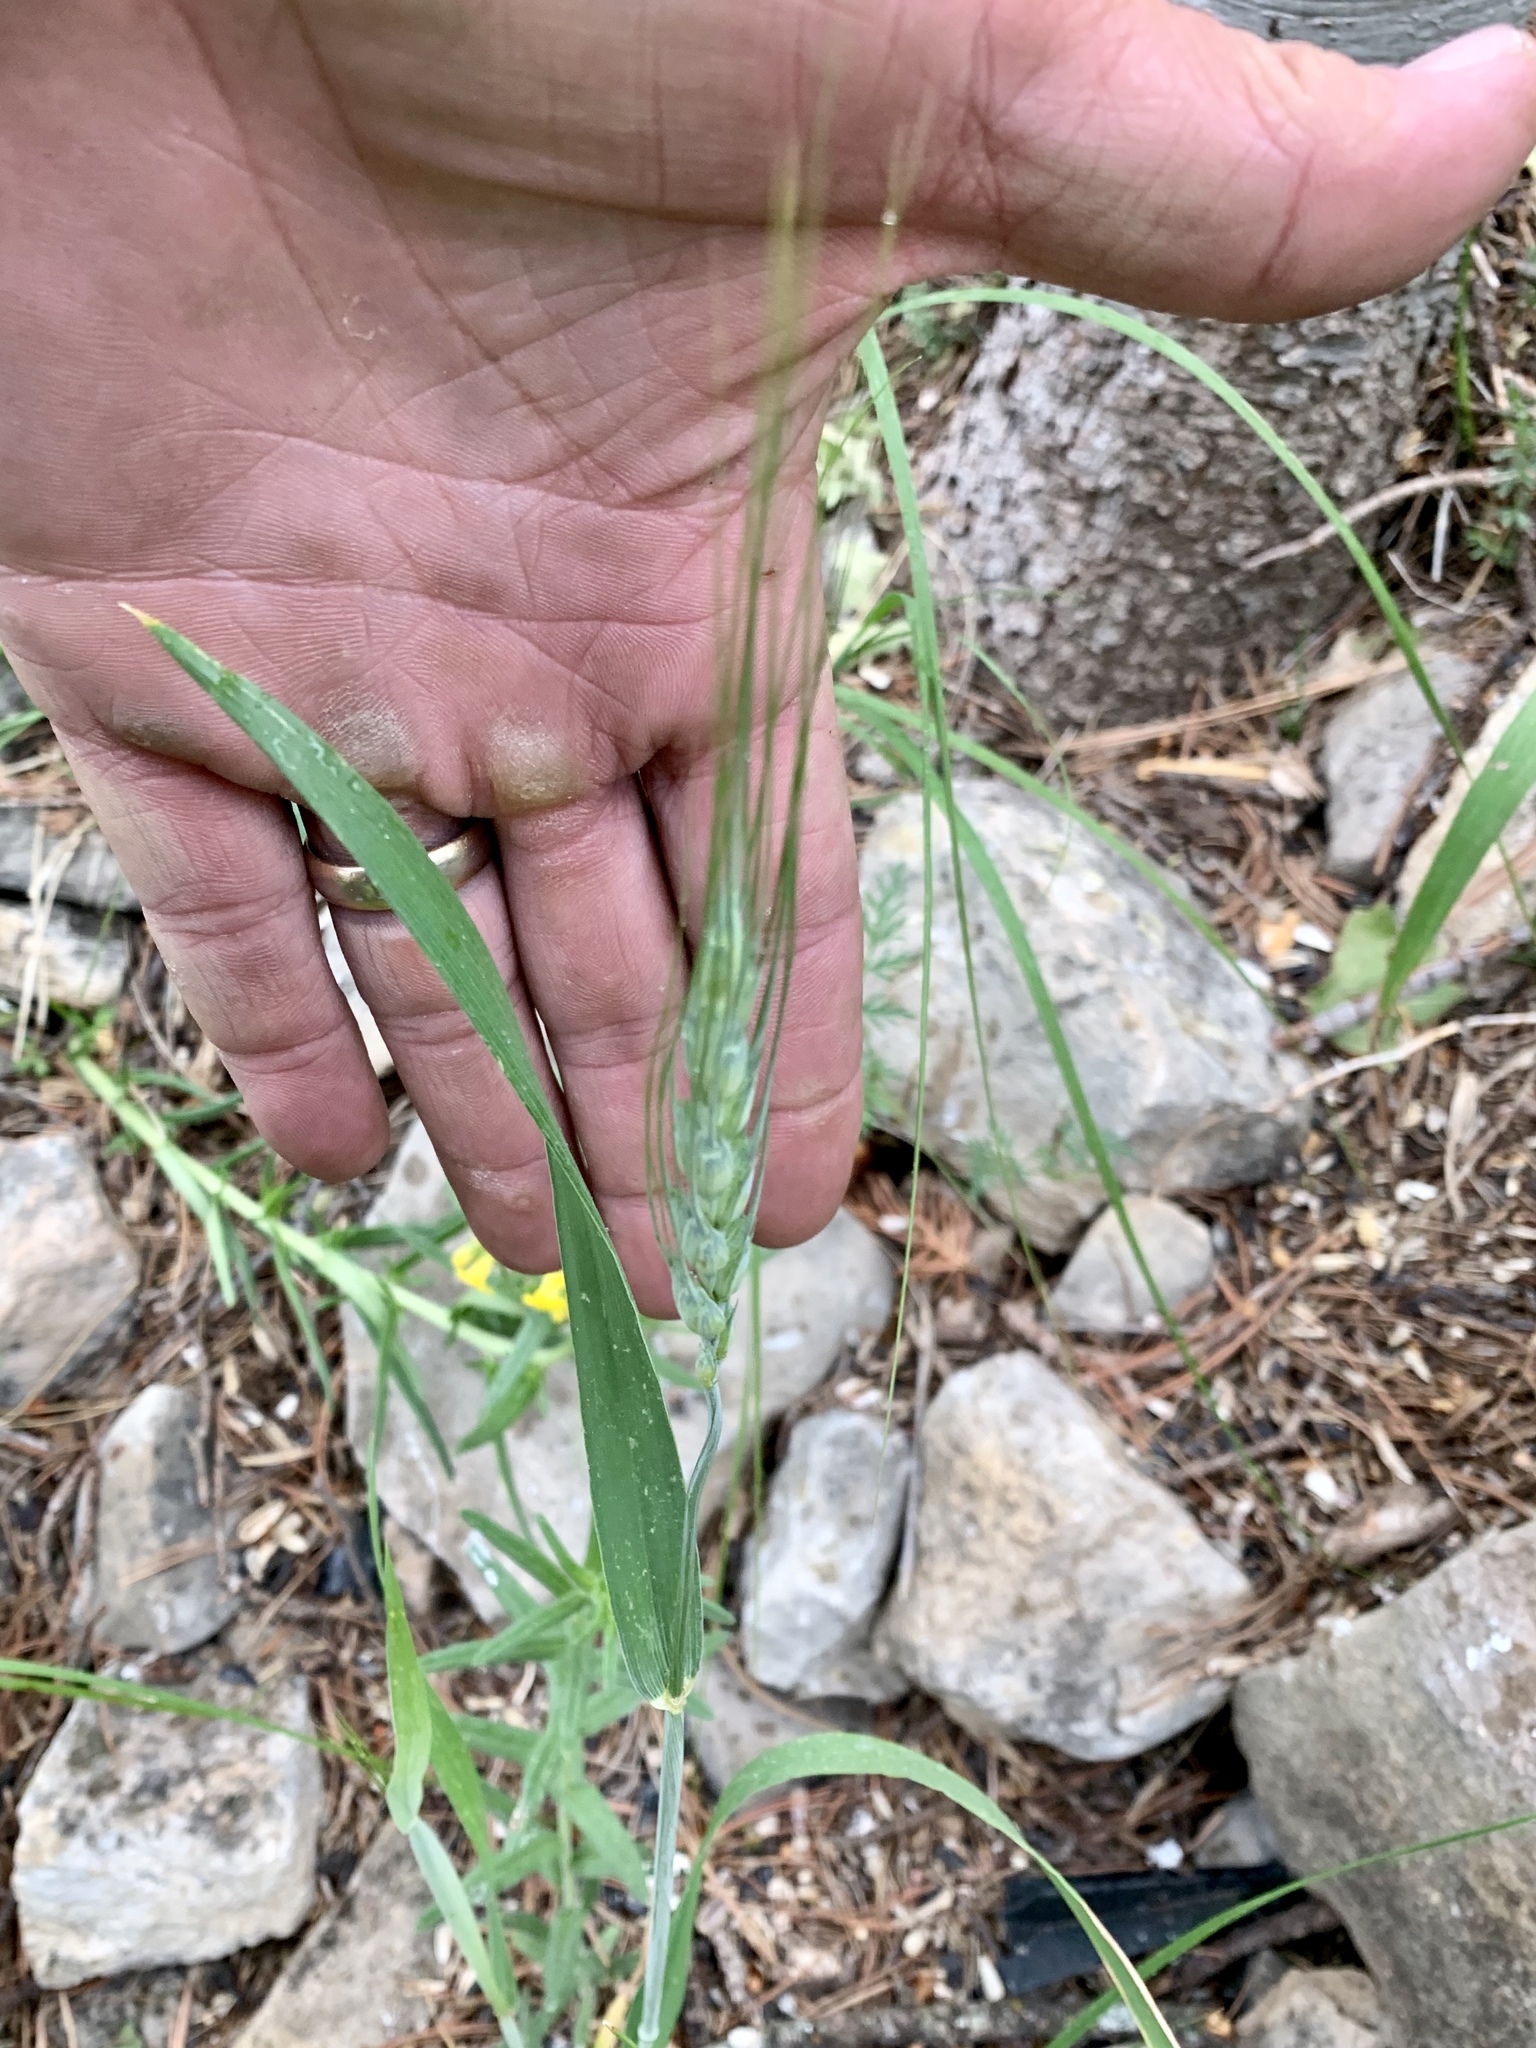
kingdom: Plantae
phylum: Tracheophyta
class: Liliopsida
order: Poales
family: Poaceae
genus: Triticum
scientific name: Triticum aestivum
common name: Common wheat
